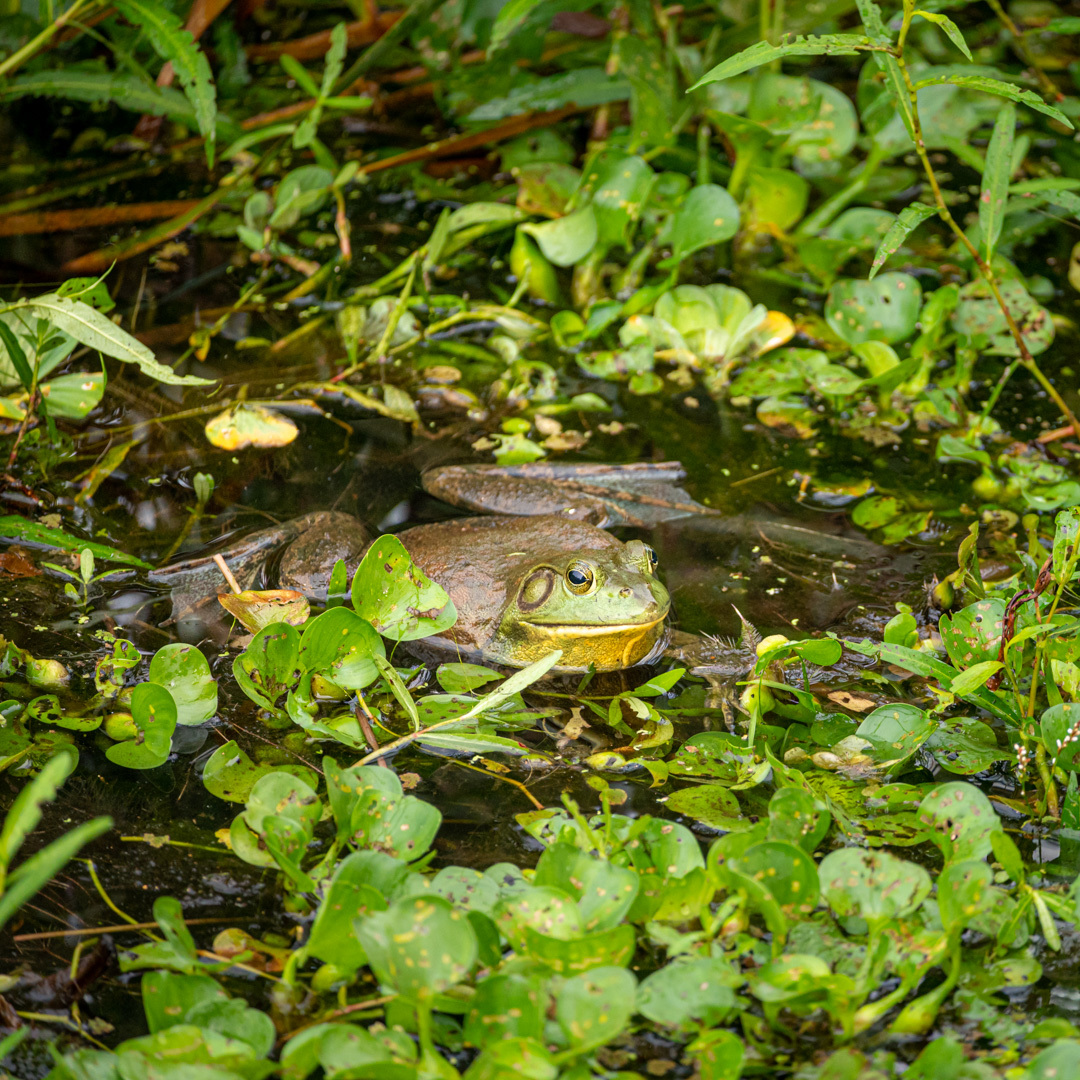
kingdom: Animalia
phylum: Chordata
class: Amphibia
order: Anura
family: Ranidae
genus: Lithobates
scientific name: Lithobates catesbeianus
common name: American bullfrog
